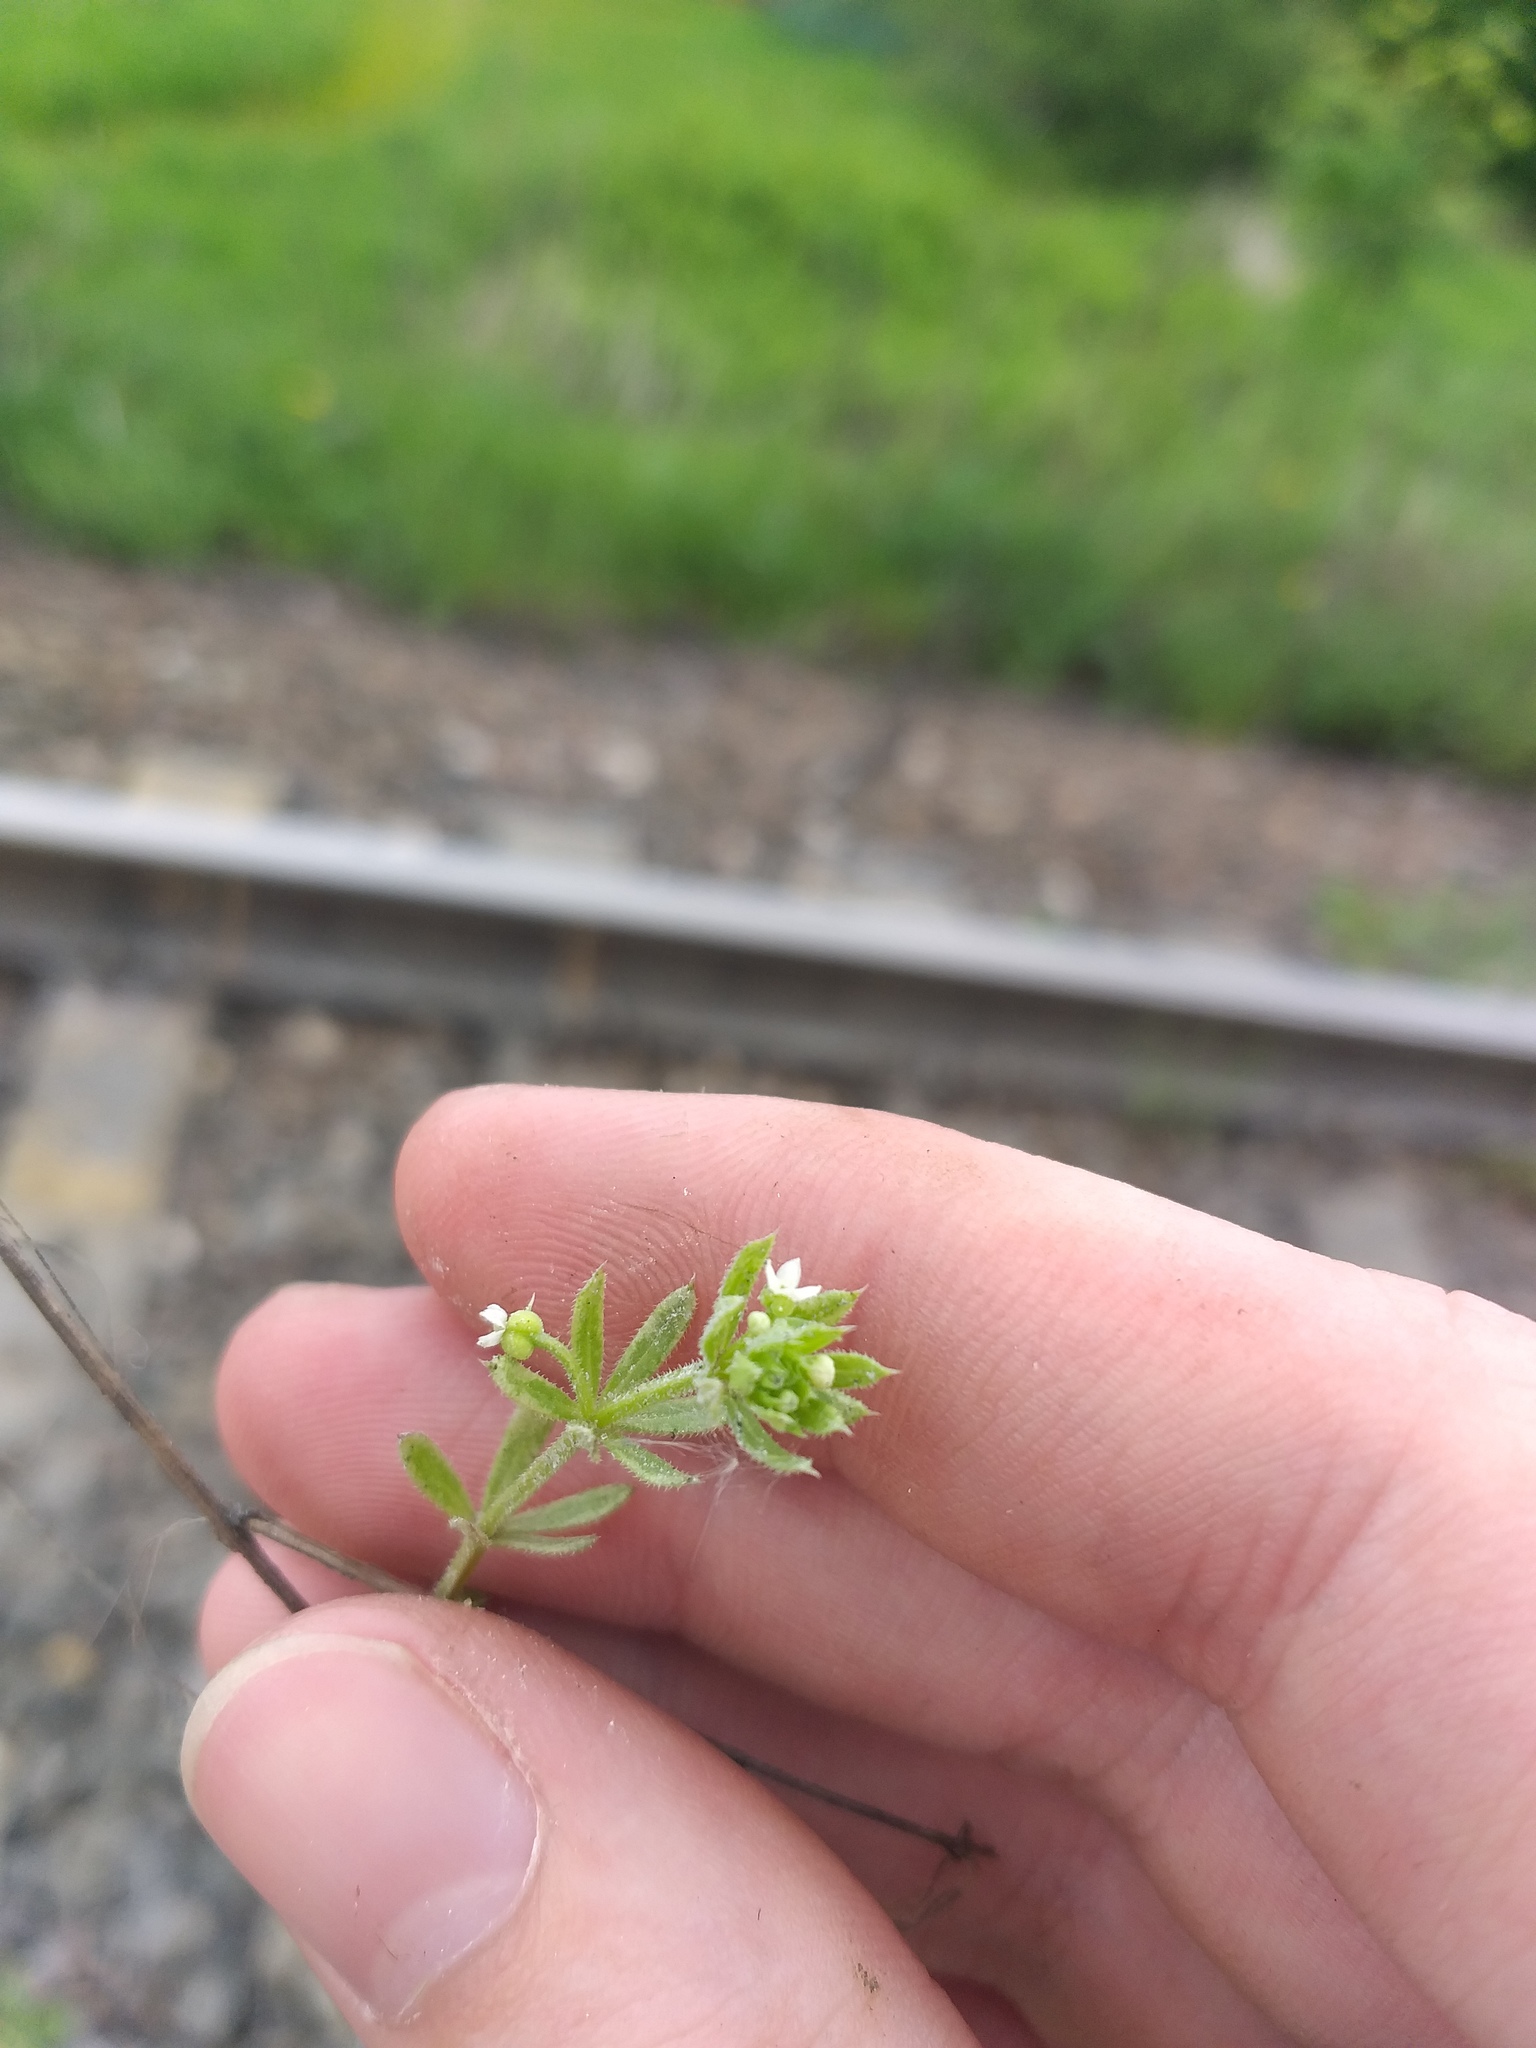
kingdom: Plantae
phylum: Tracheophyta
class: Magnoliopsida
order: Gentianales
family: Rubiaceae
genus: Galium
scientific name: Galium aparine
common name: Cleavers
